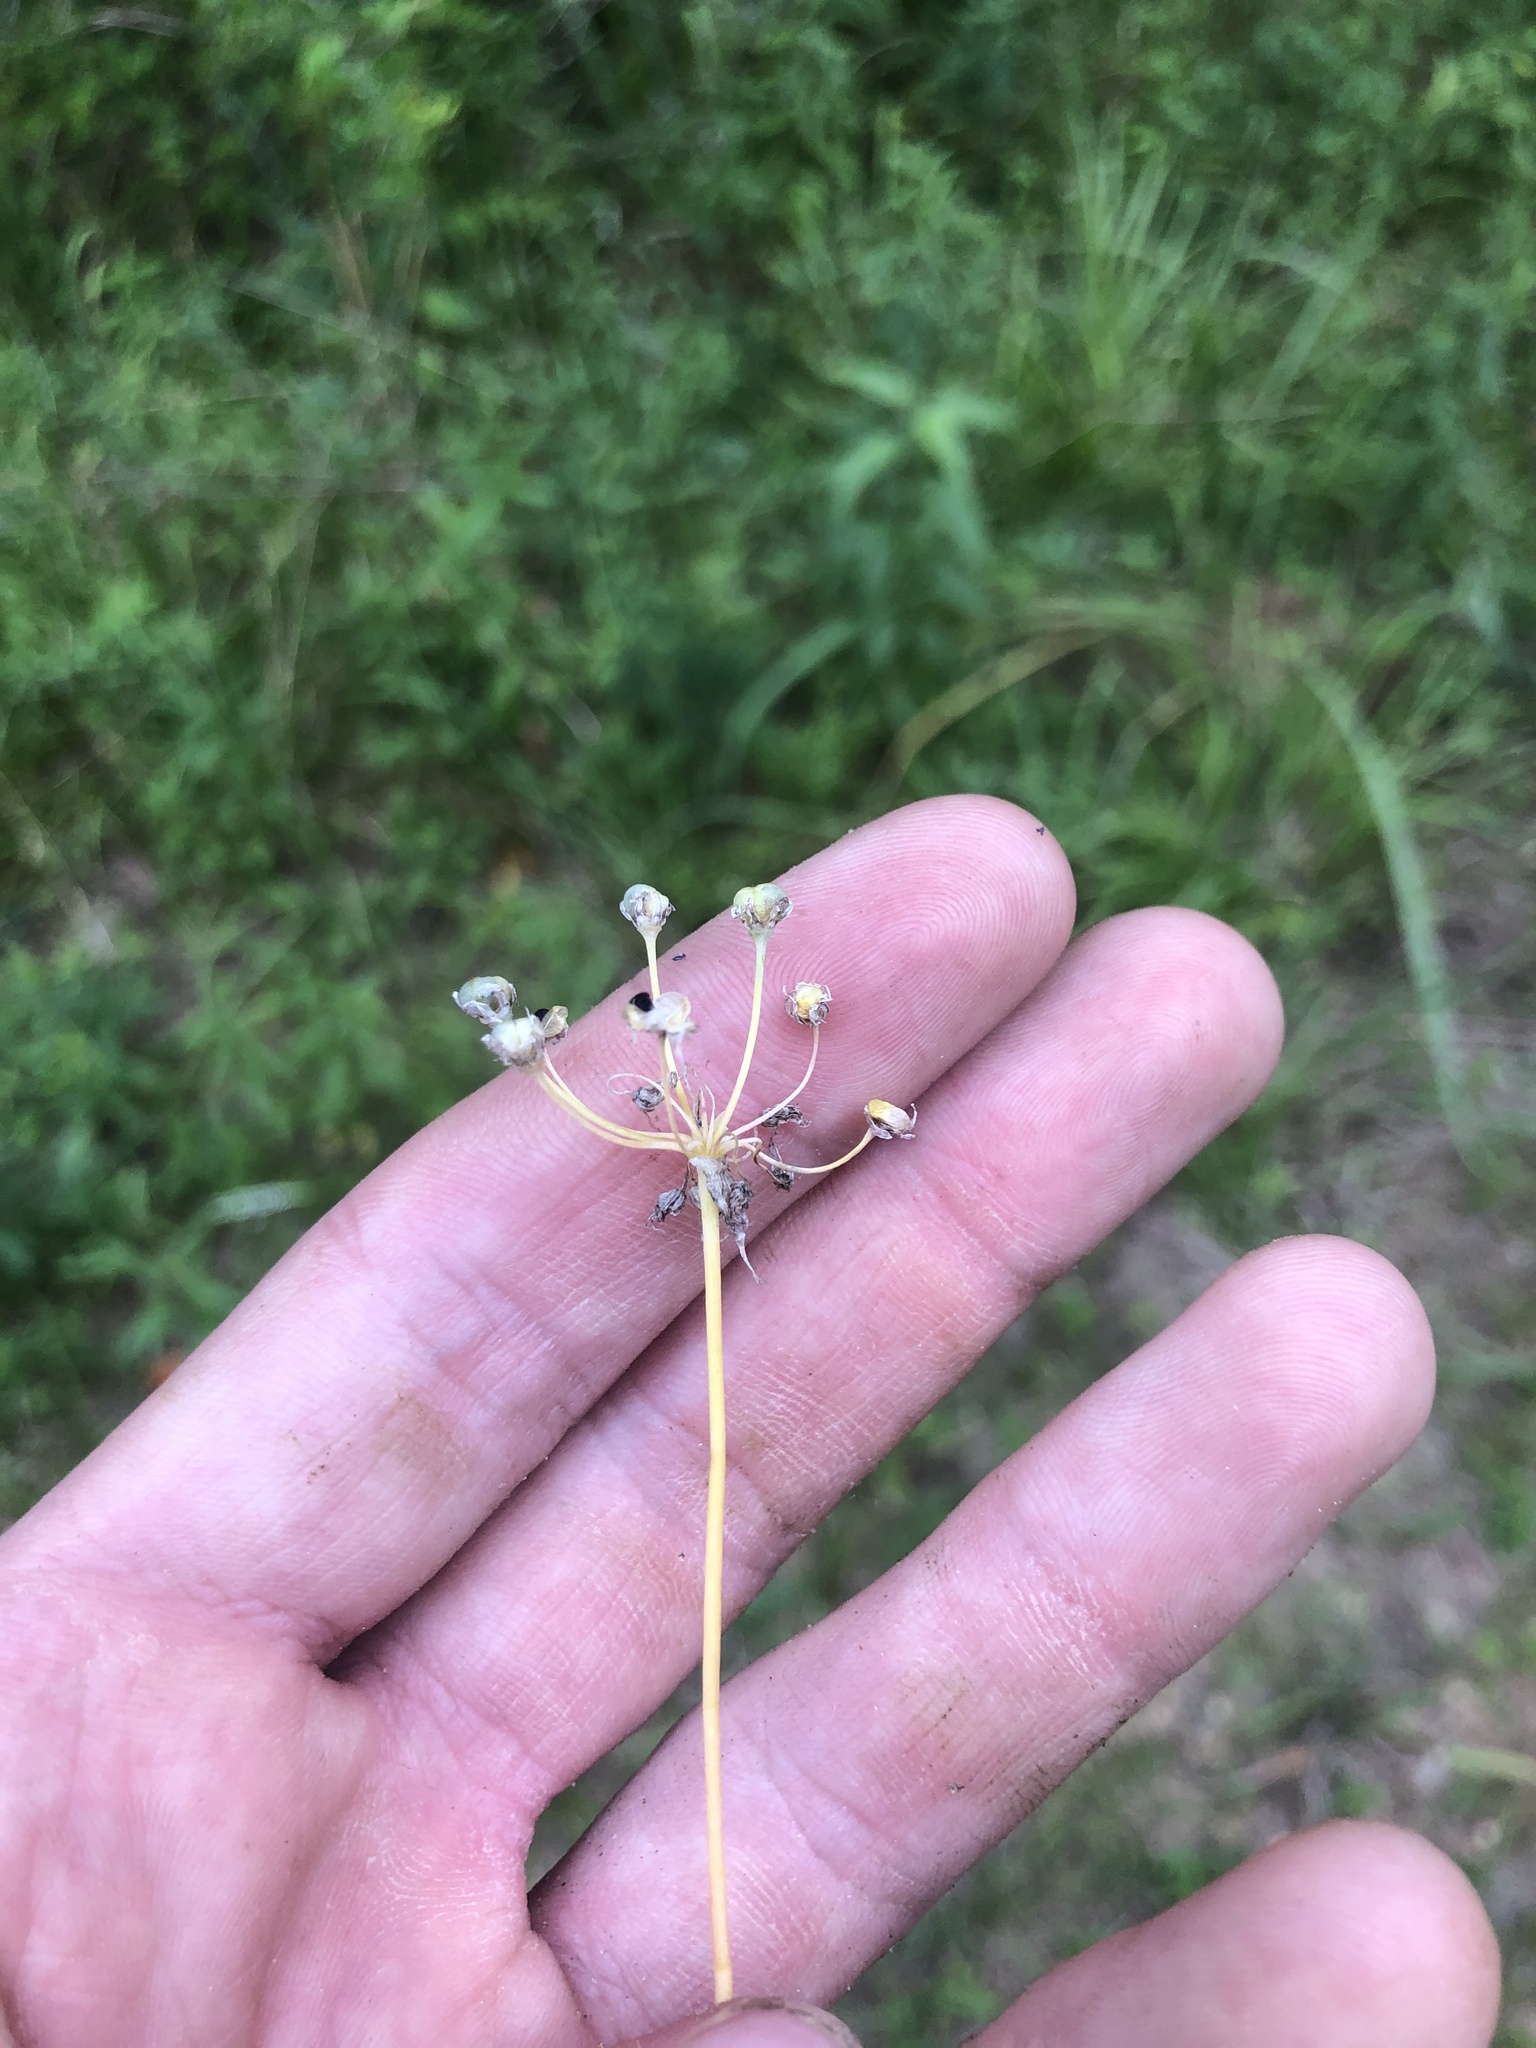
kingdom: Plantae
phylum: Tracheophyta
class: Liliopsida
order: Asparagales
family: Amaryllidaceae
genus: Allium
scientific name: Allium canadense
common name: Meadow garlic
